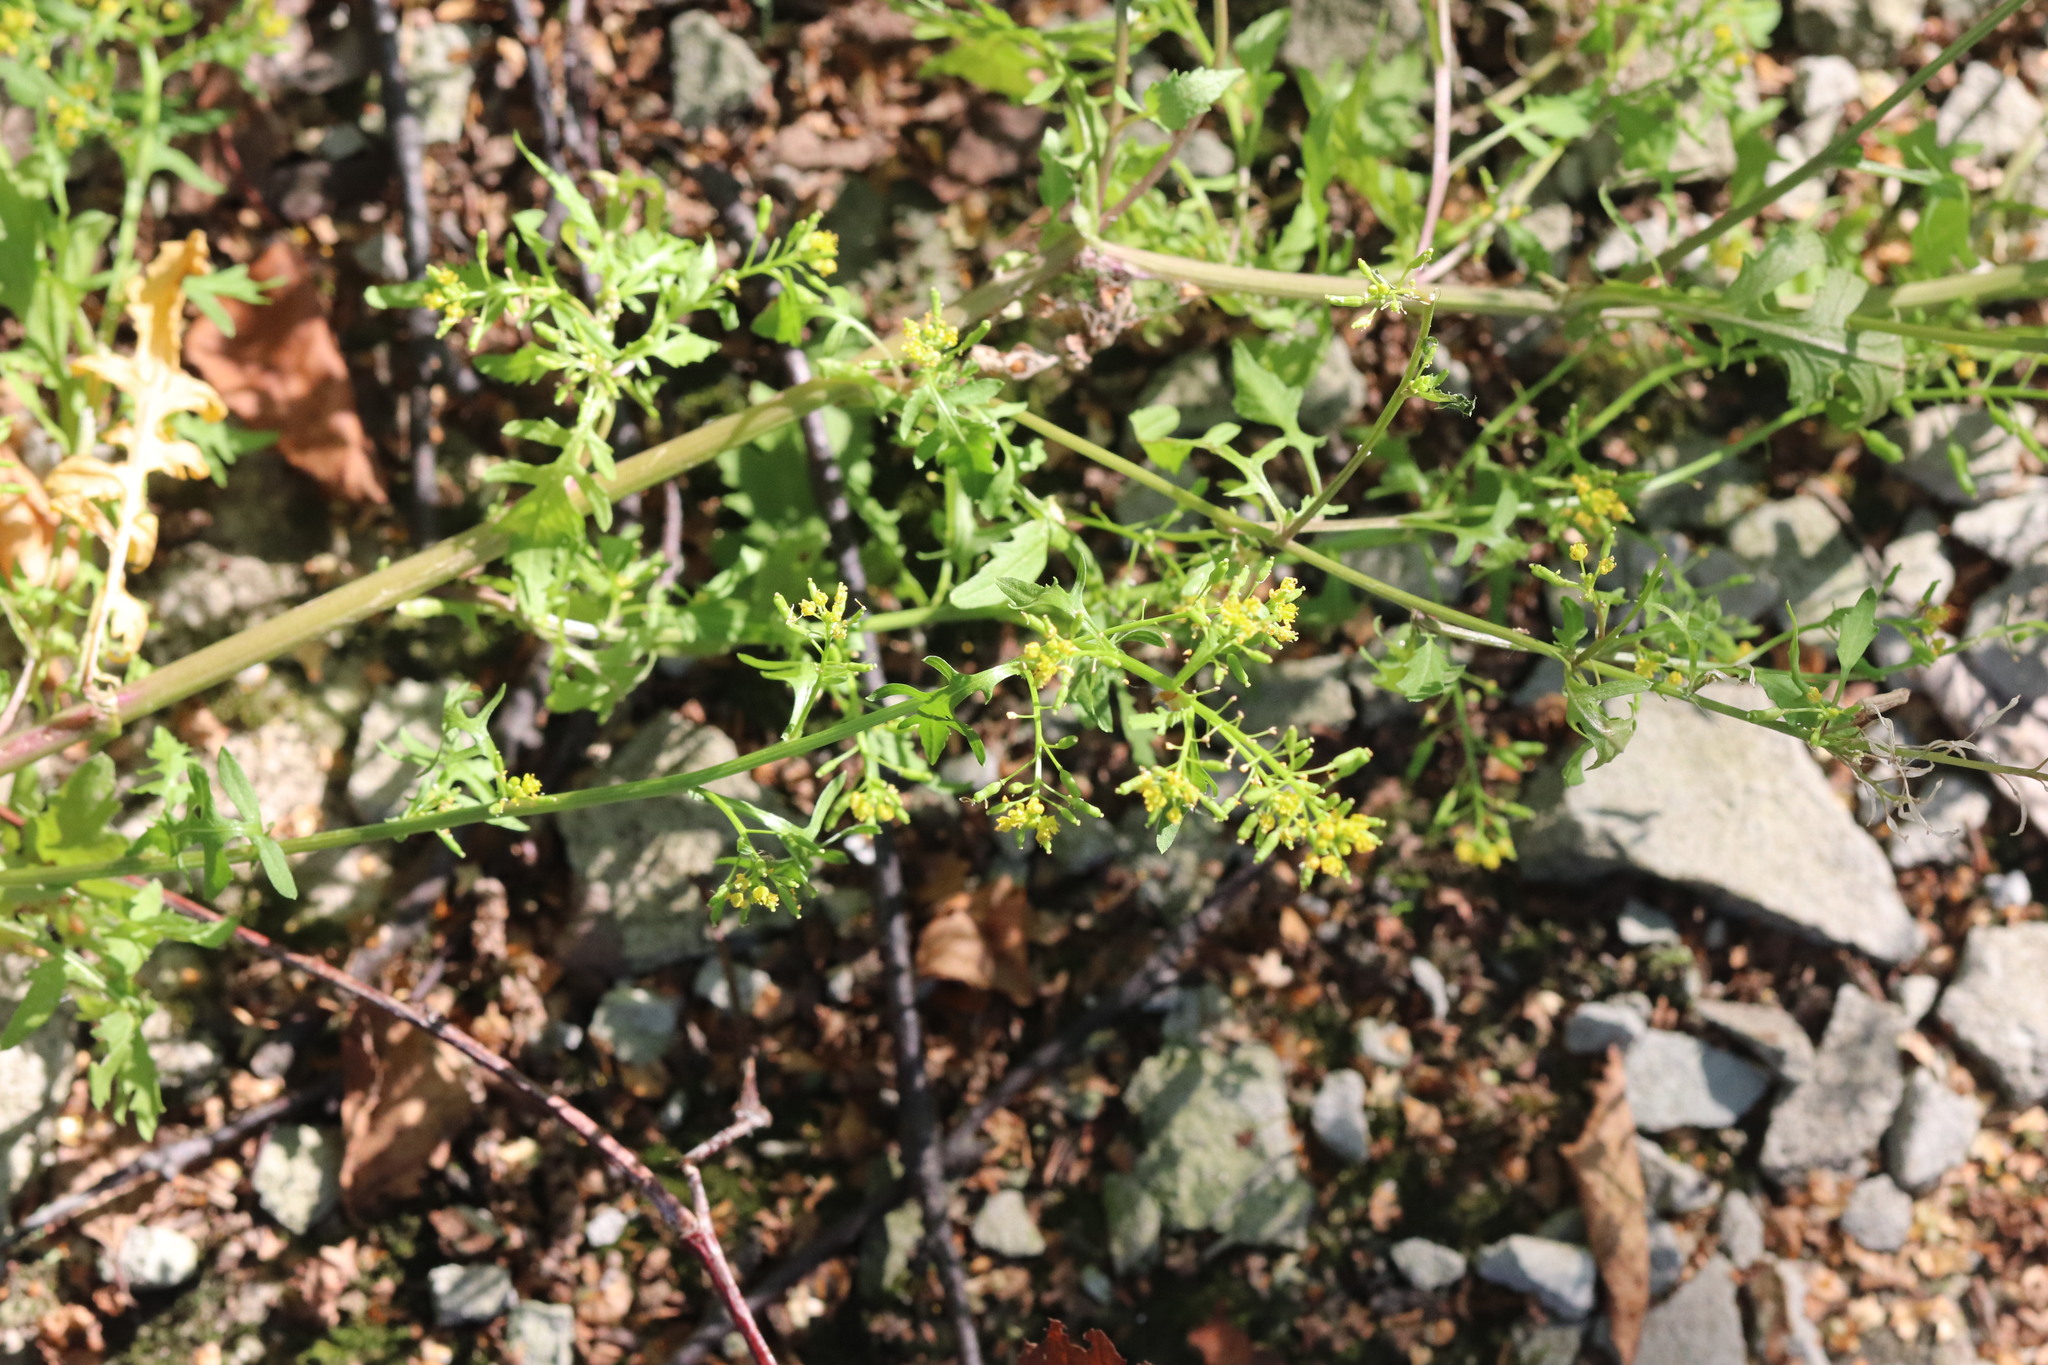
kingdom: Plantae
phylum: Tracheophyta
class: Magnoliopsida
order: Brassicales
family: Brassicaceae
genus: Rorippa
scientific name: Rorippa palustris
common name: Marsh yellow-cress
